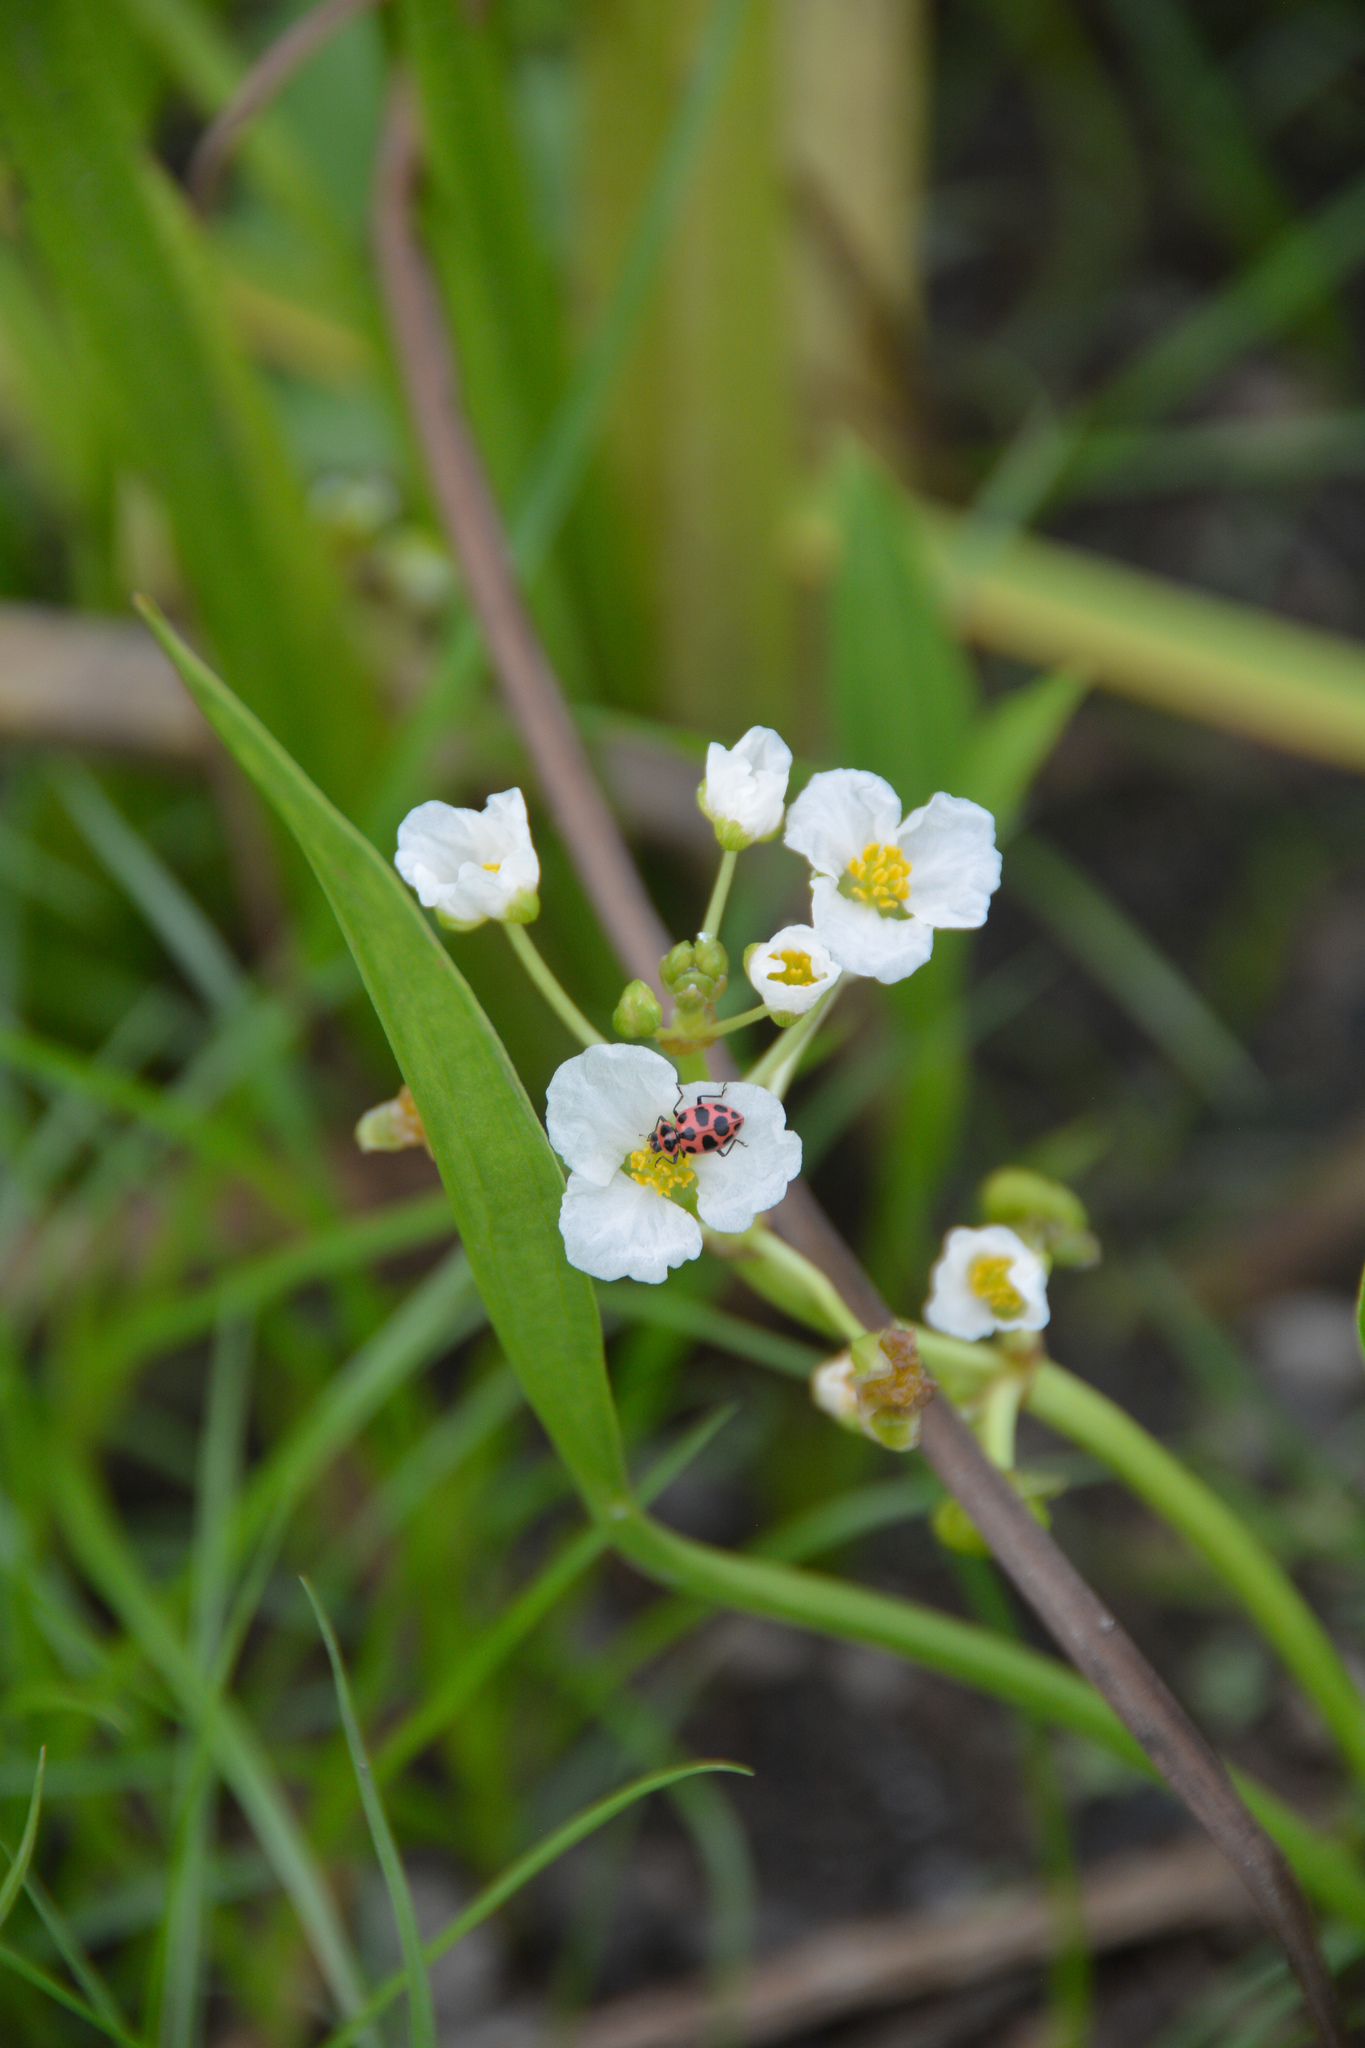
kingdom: Plantae
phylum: Tracheophyta
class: Liliopsida
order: Alismatales
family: Alismataceae
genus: Sagittaria
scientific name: Sagittaria platyphylla
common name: Broad-leaf arrowhead
